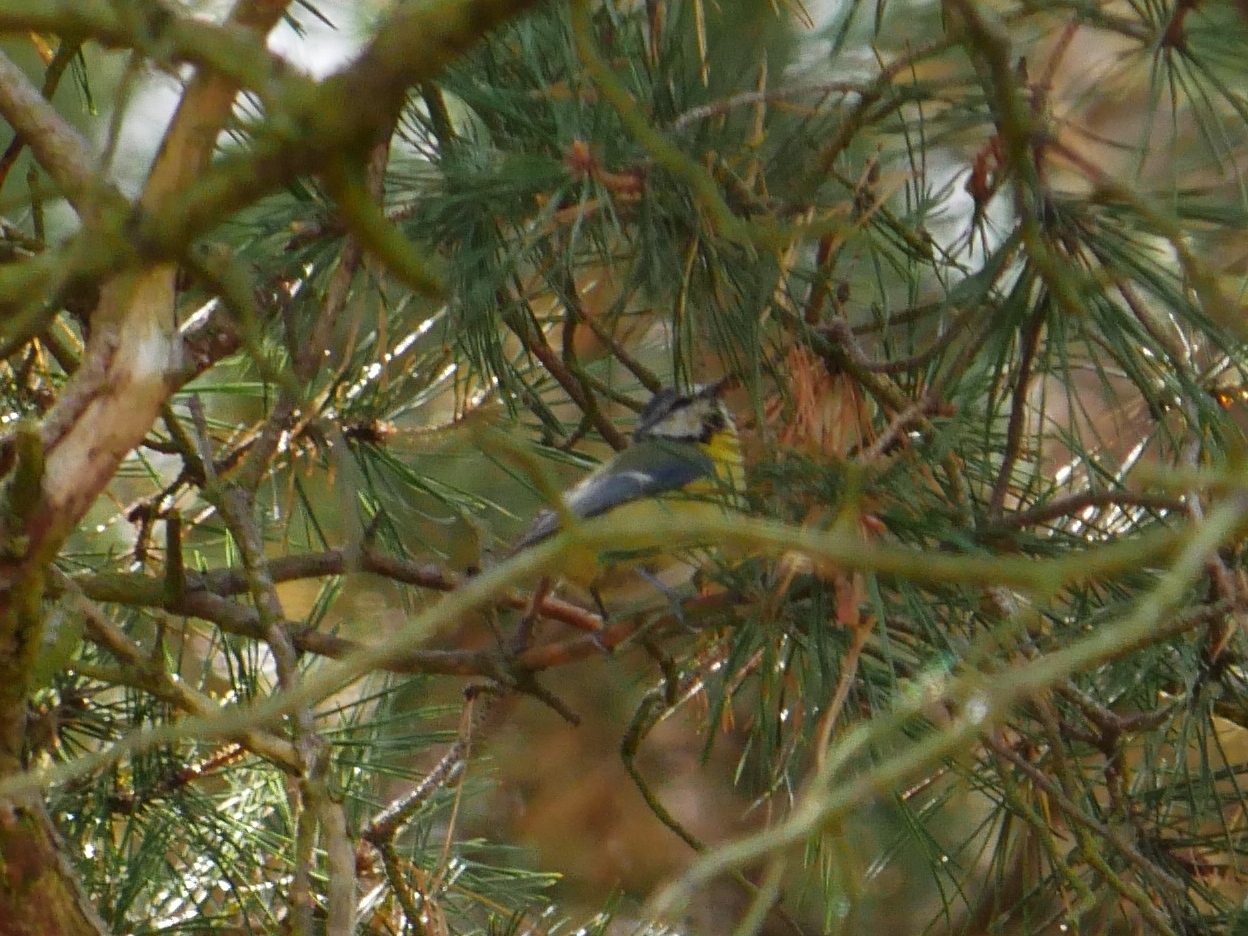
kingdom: Animalia
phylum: Chordata
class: Aves
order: Passeriformes
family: Paridae
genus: Cyanistes
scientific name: Cyanistes caeruleus
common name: Eurasian blue tit
